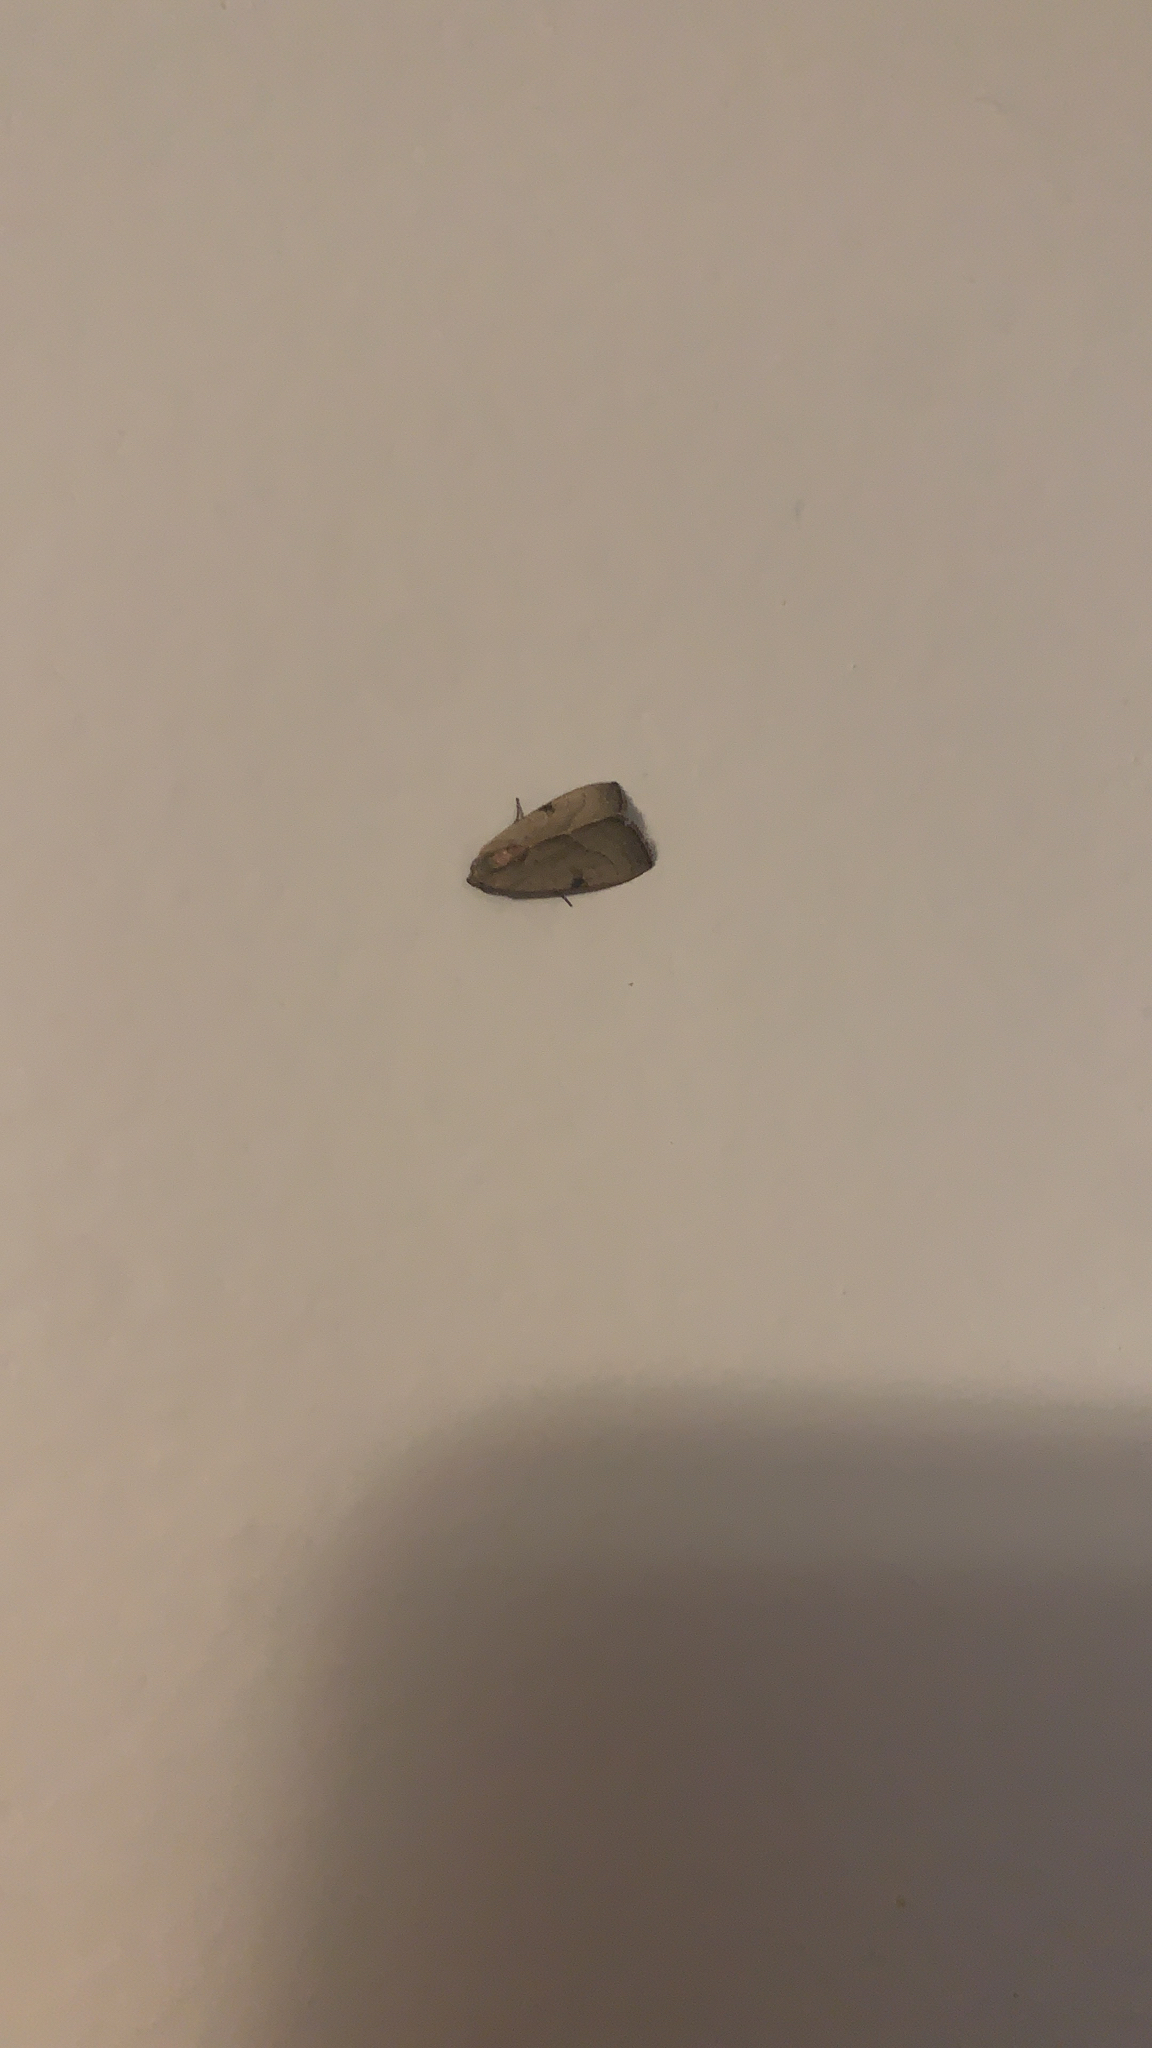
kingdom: Animalia
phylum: Arthropoda
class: Insecta
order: Lepidoptera
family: Noctuidae
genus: Galgula
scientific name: Galgula partita
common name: Wedgeling
